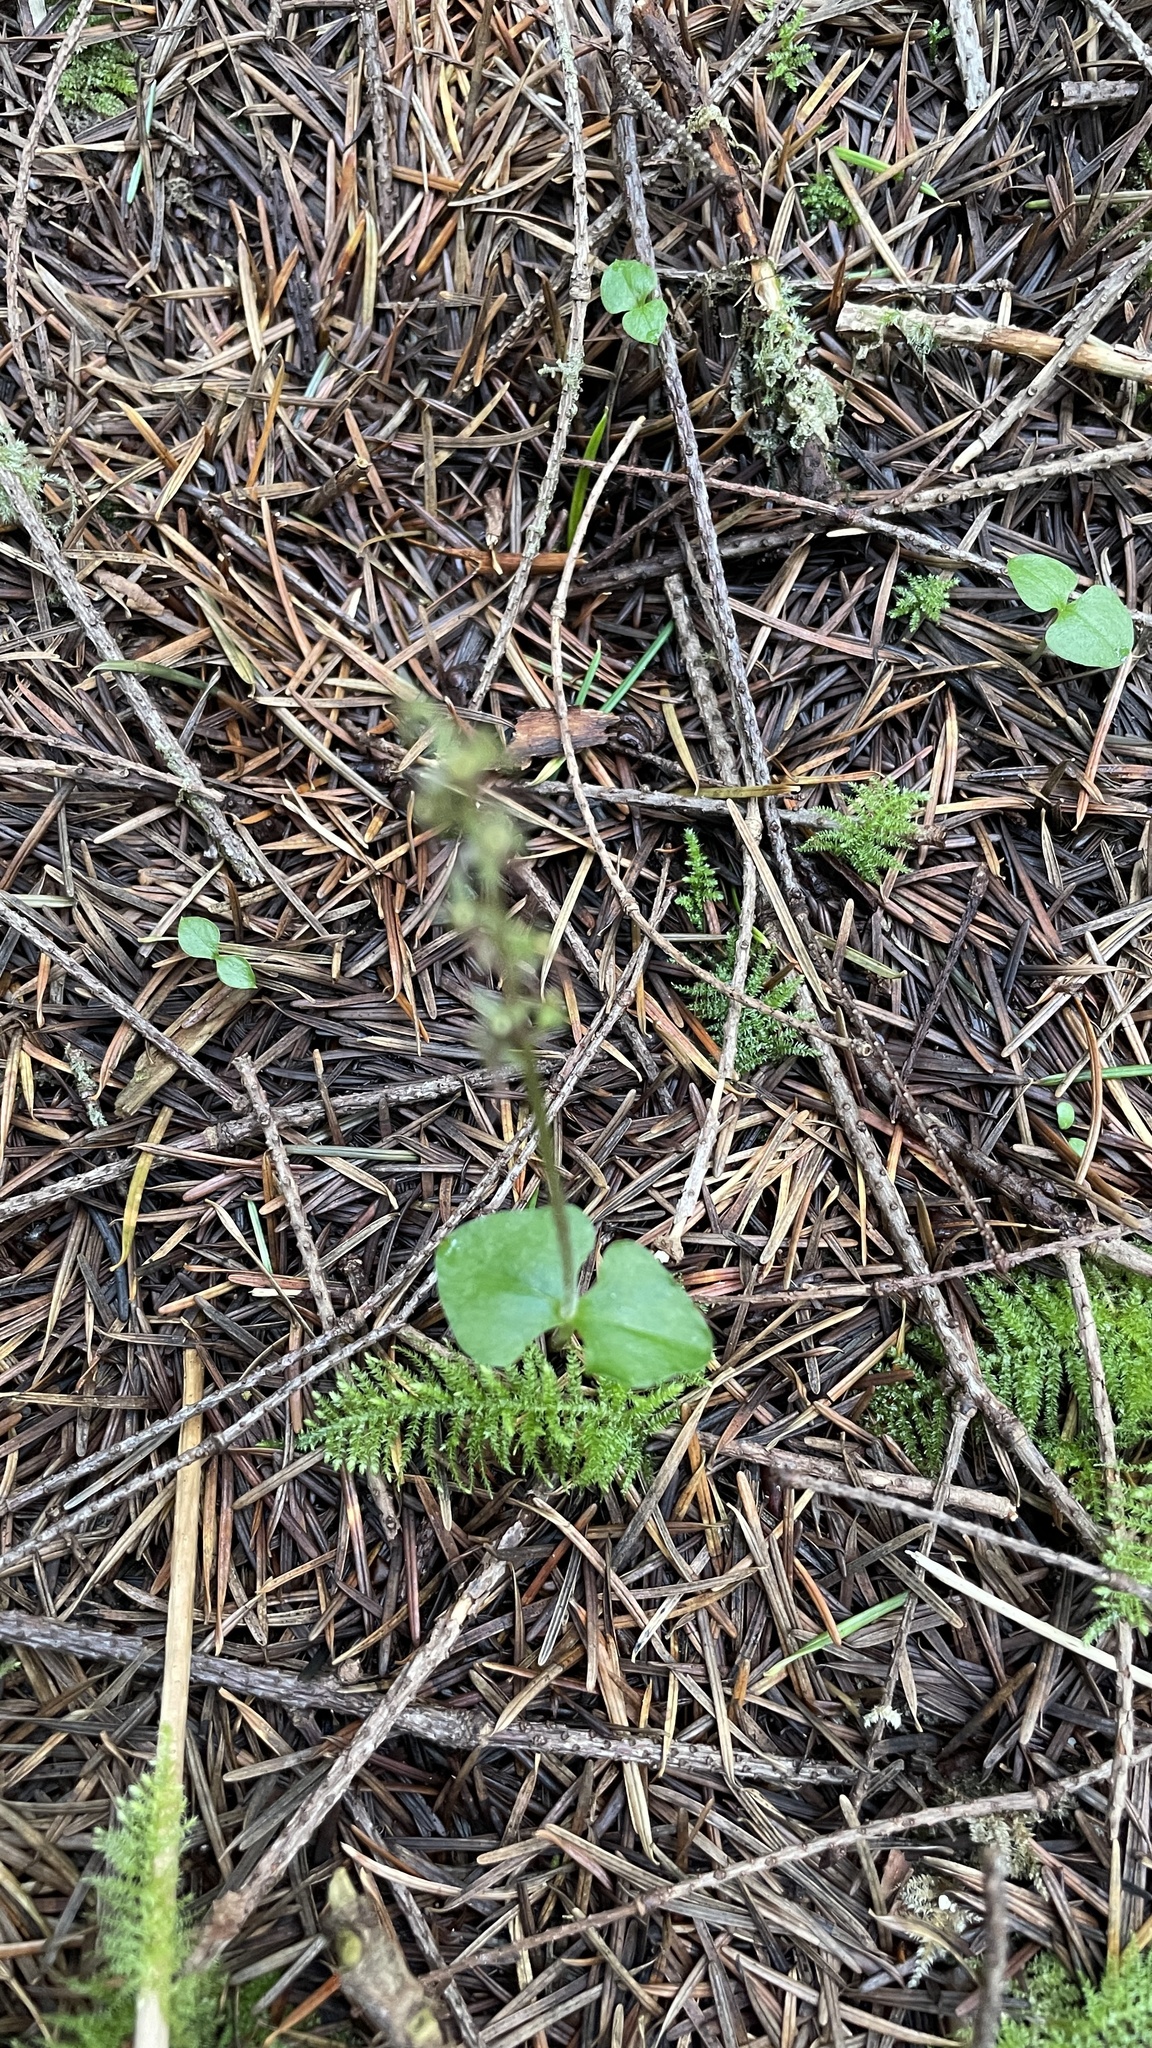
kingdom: Plantae
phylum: Tracheophyta
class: Liliopsida
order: Asparagales
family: Orchidaceae
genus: Neottia
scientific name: Neottia cordata
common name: Lesser twayblade
